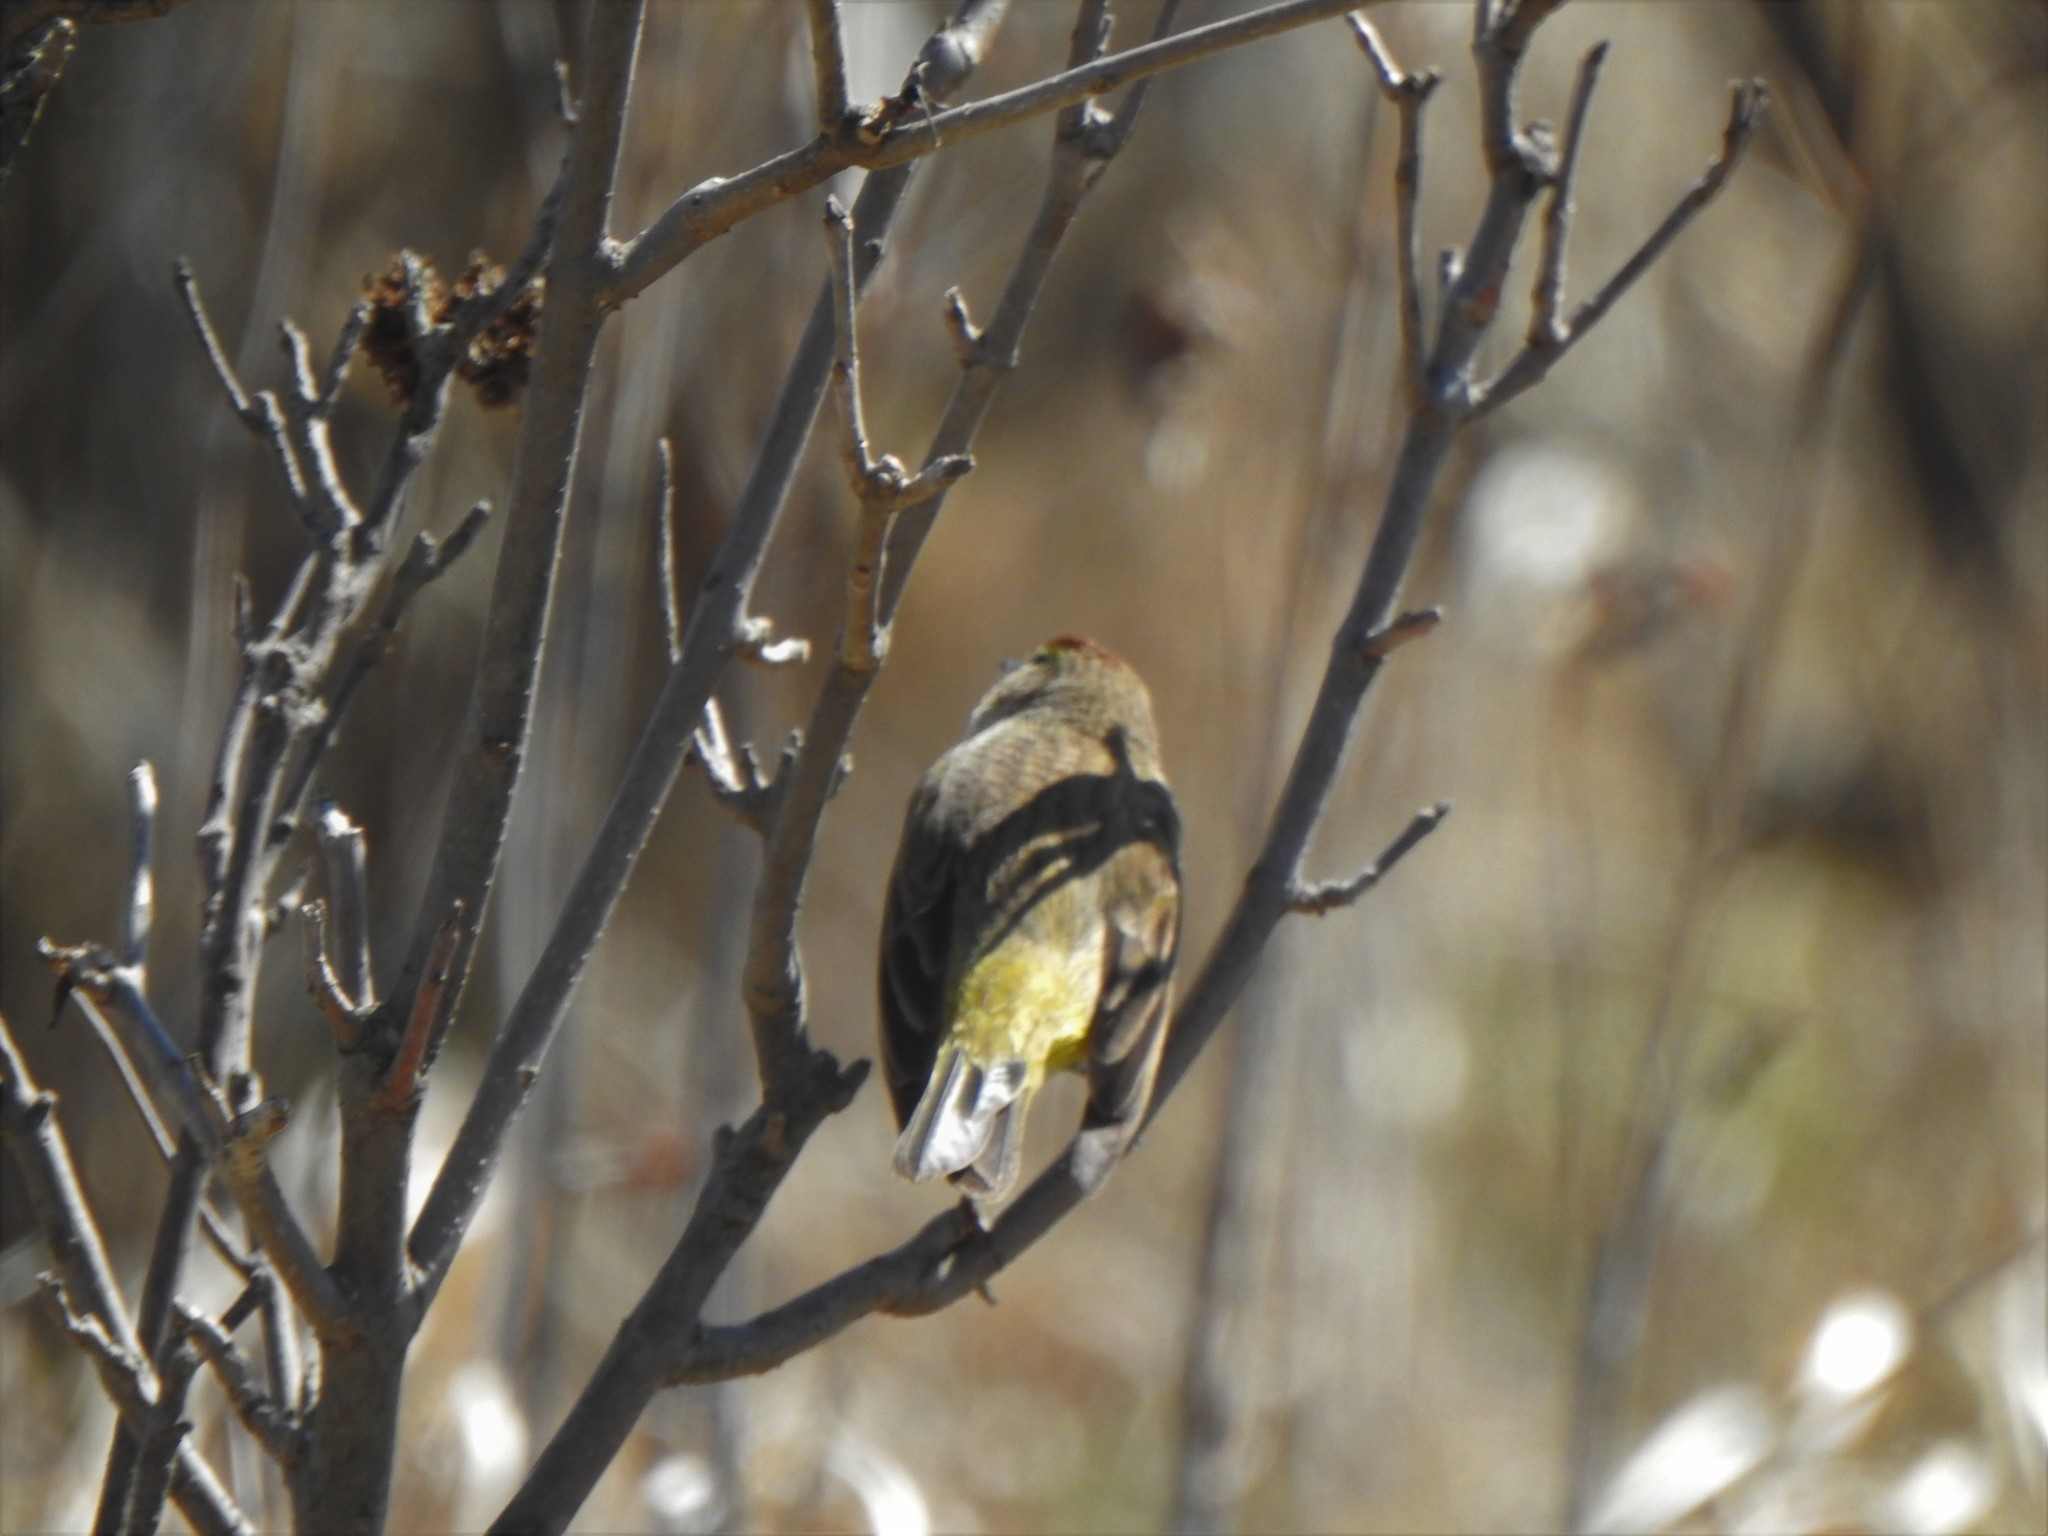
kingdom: Animalia
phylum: Chordata
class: Aves
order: Passeriformes
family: Parulidae
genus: Setophaga
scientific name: Setophaga palmarum
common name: Palm warbler
